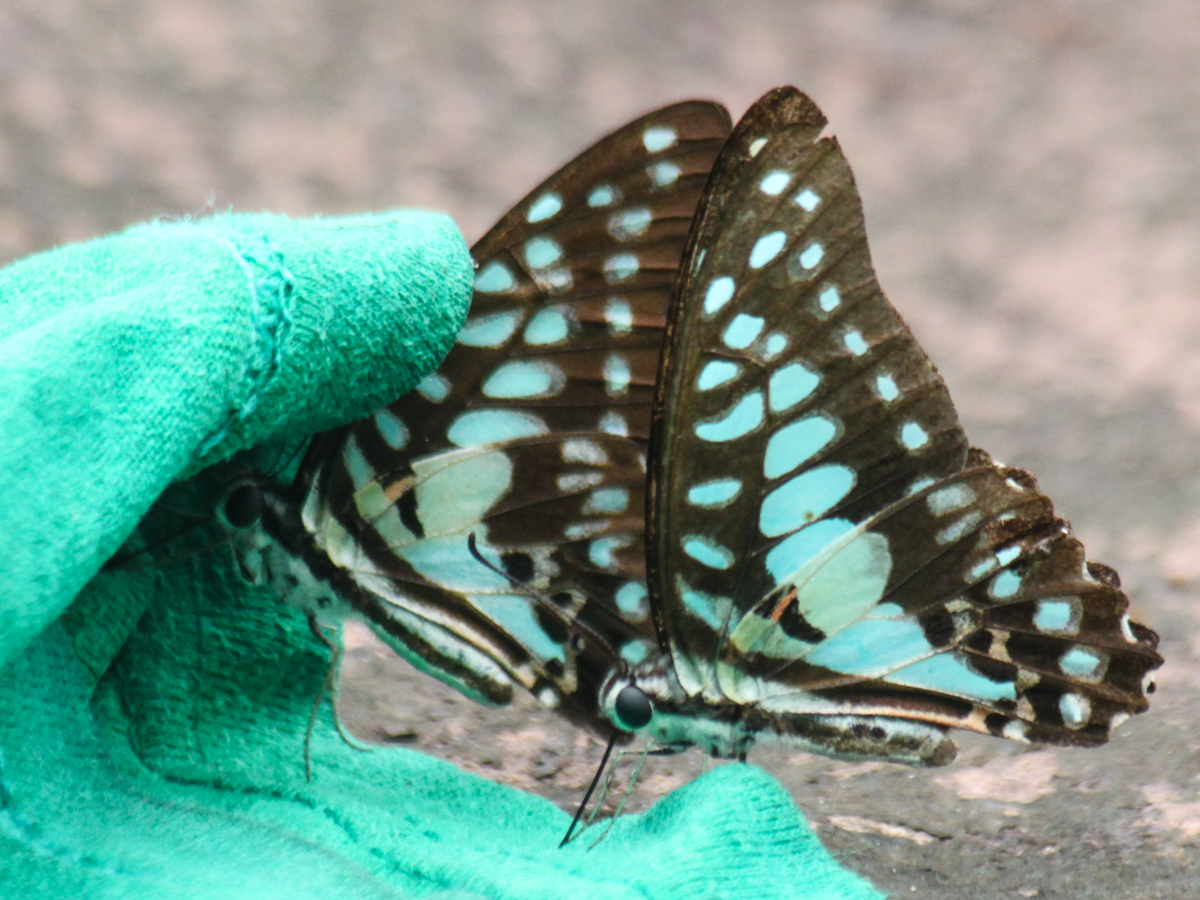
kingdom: Animalia
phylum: Arthropoda
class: Insecta
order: Lepidoptera
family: Papilionidae
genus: Graphium
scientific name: Graphium doson
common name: Common jay
